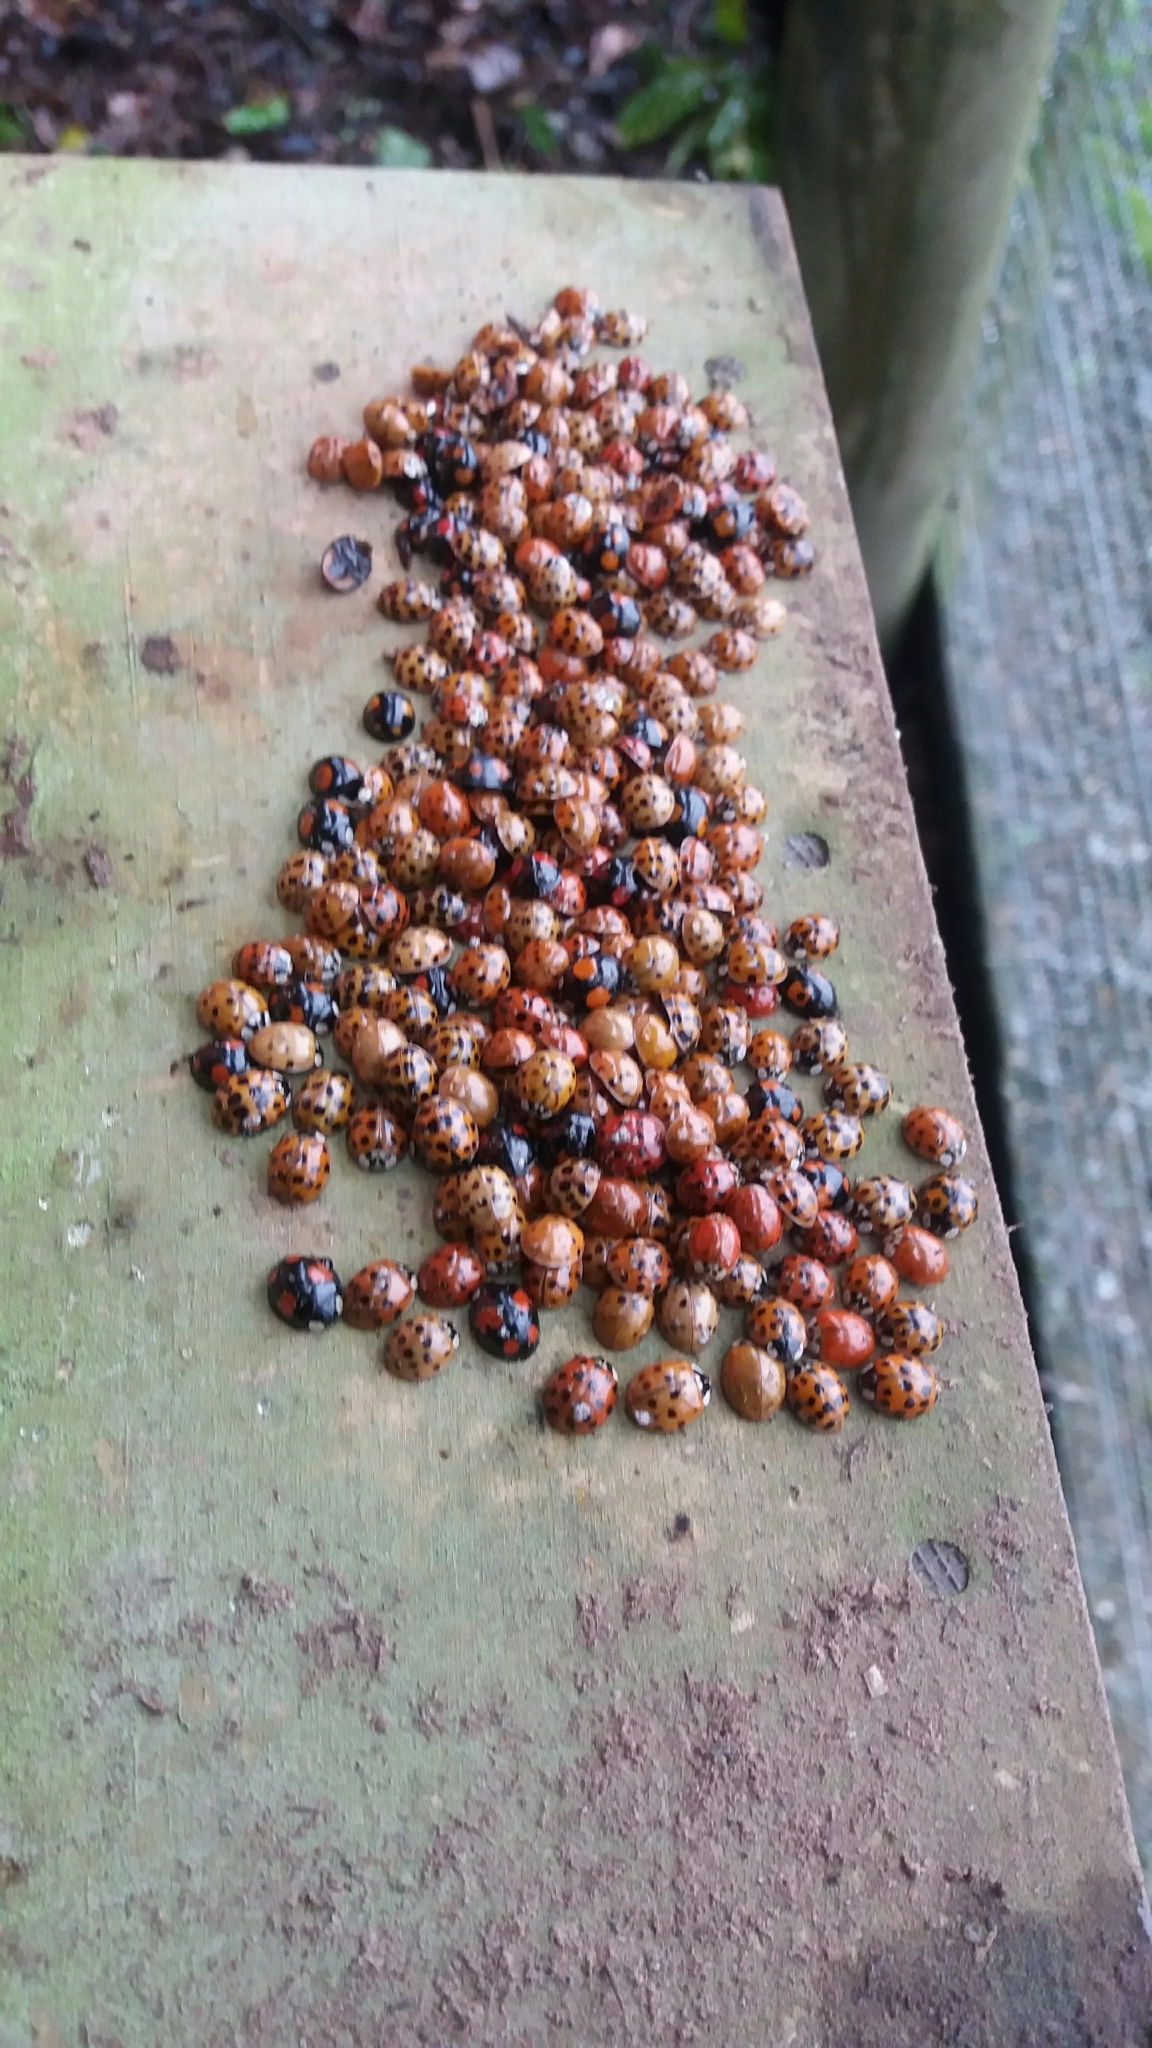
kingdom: Animalia
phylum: Arthropoda
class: Insecta
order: Coleoptera
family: Coccinellidae
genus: Harmonia
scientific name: Harmonia axyridis
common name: Harlequin ladybird
